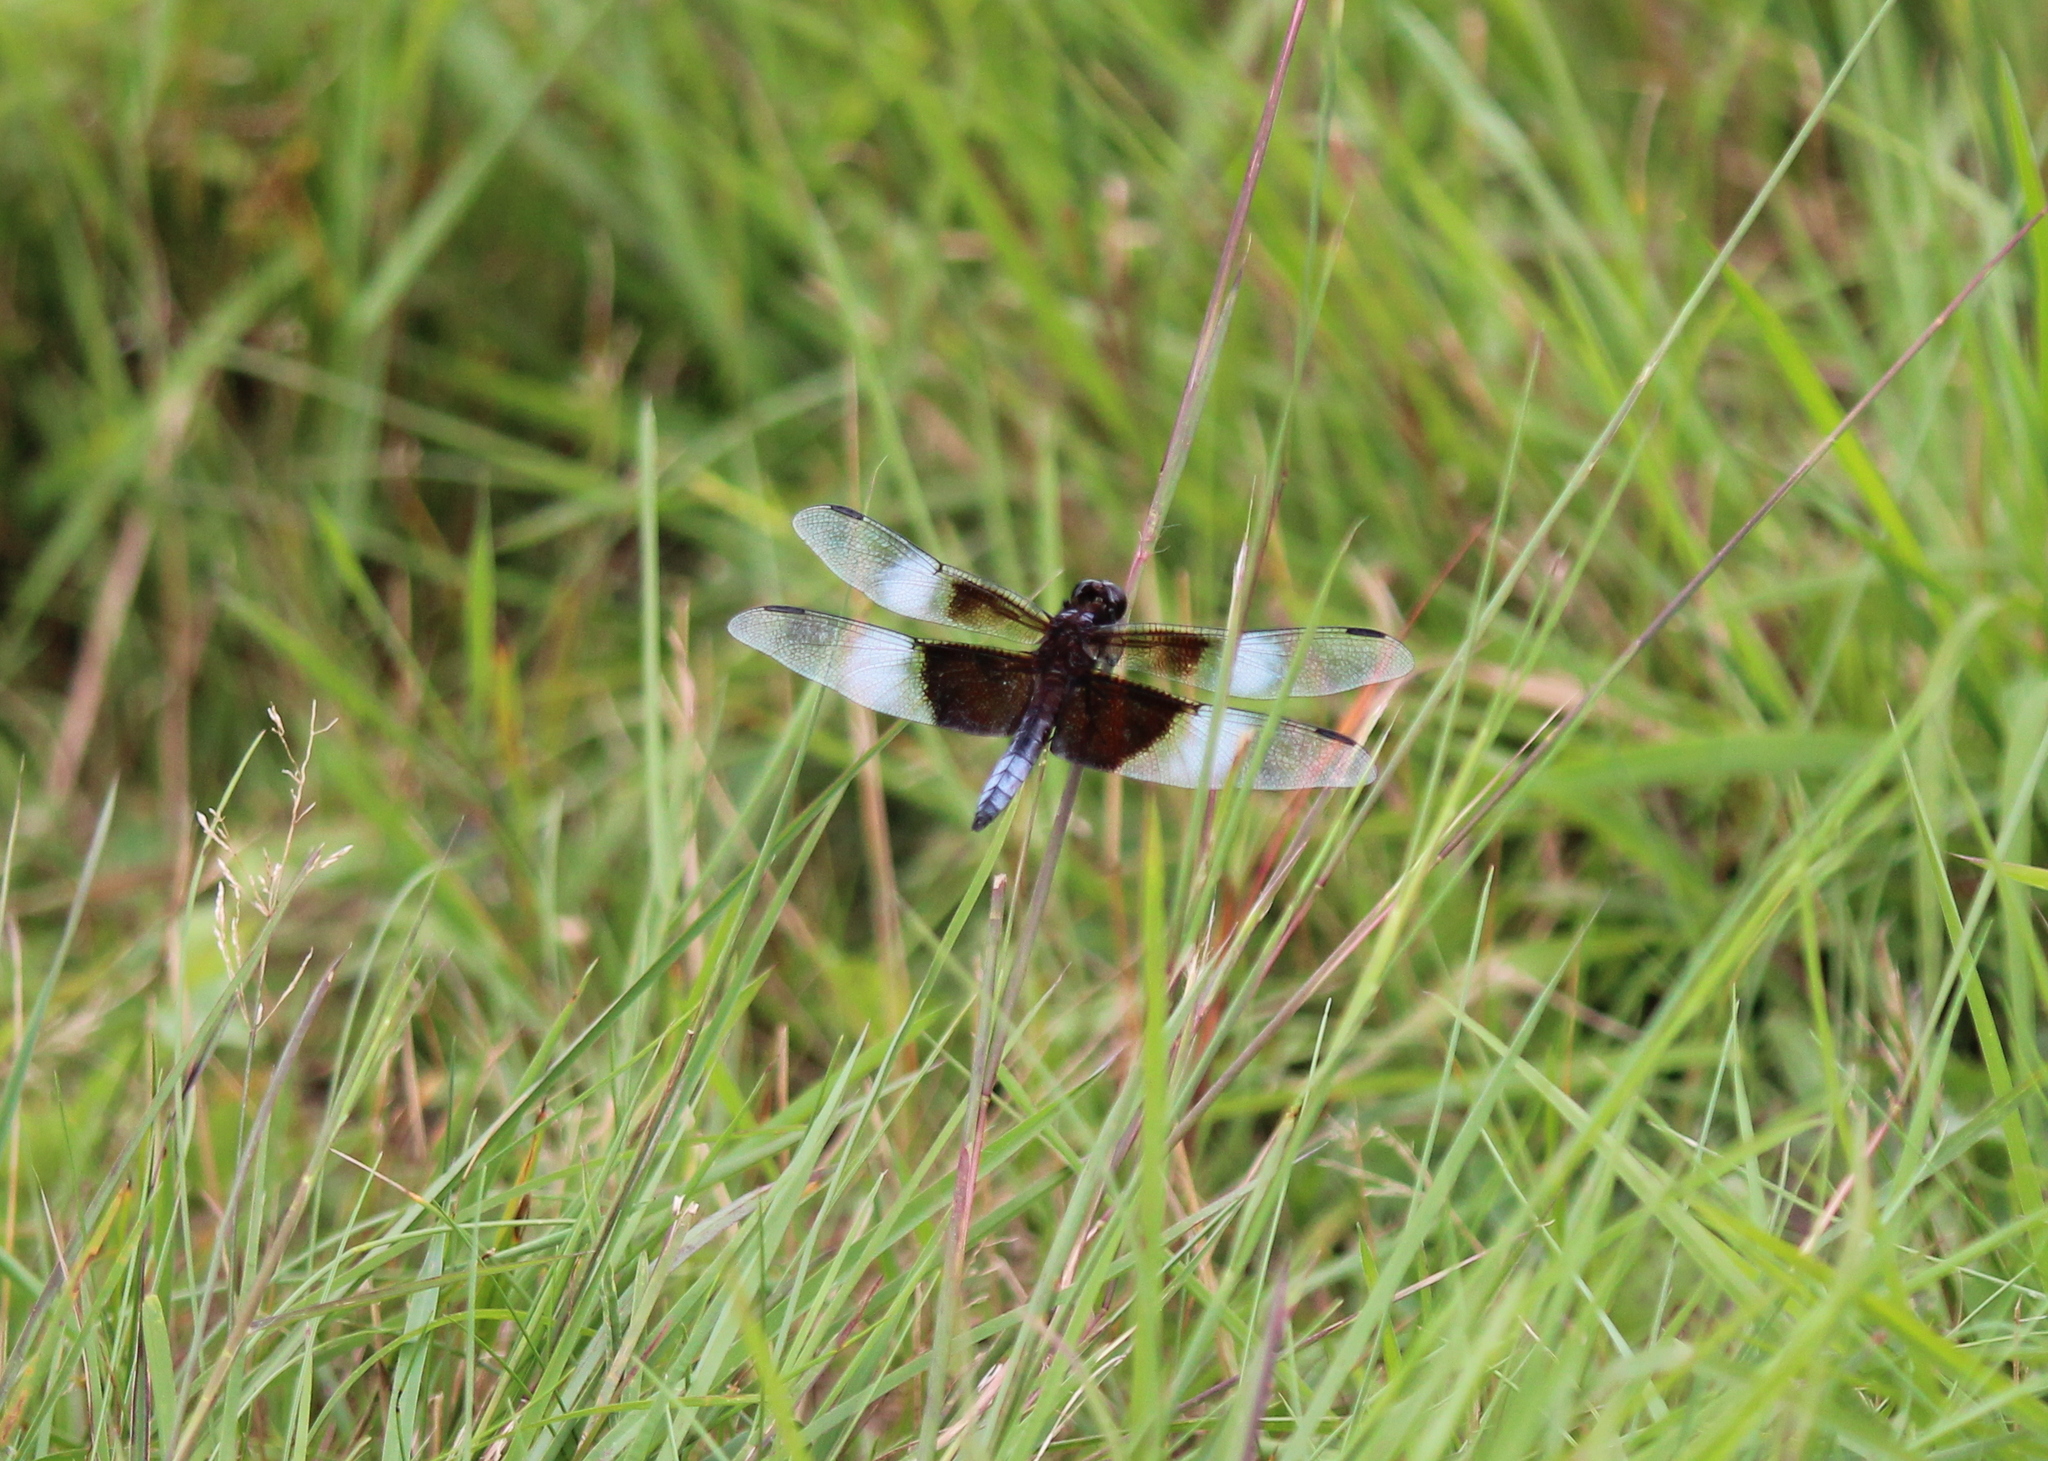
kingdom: Animalia
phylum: Arthropoda
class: Insecta
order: Odonata
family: Libellulidae
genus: Libellula
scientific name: Libellula luctuosa
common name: Widow skimmer
